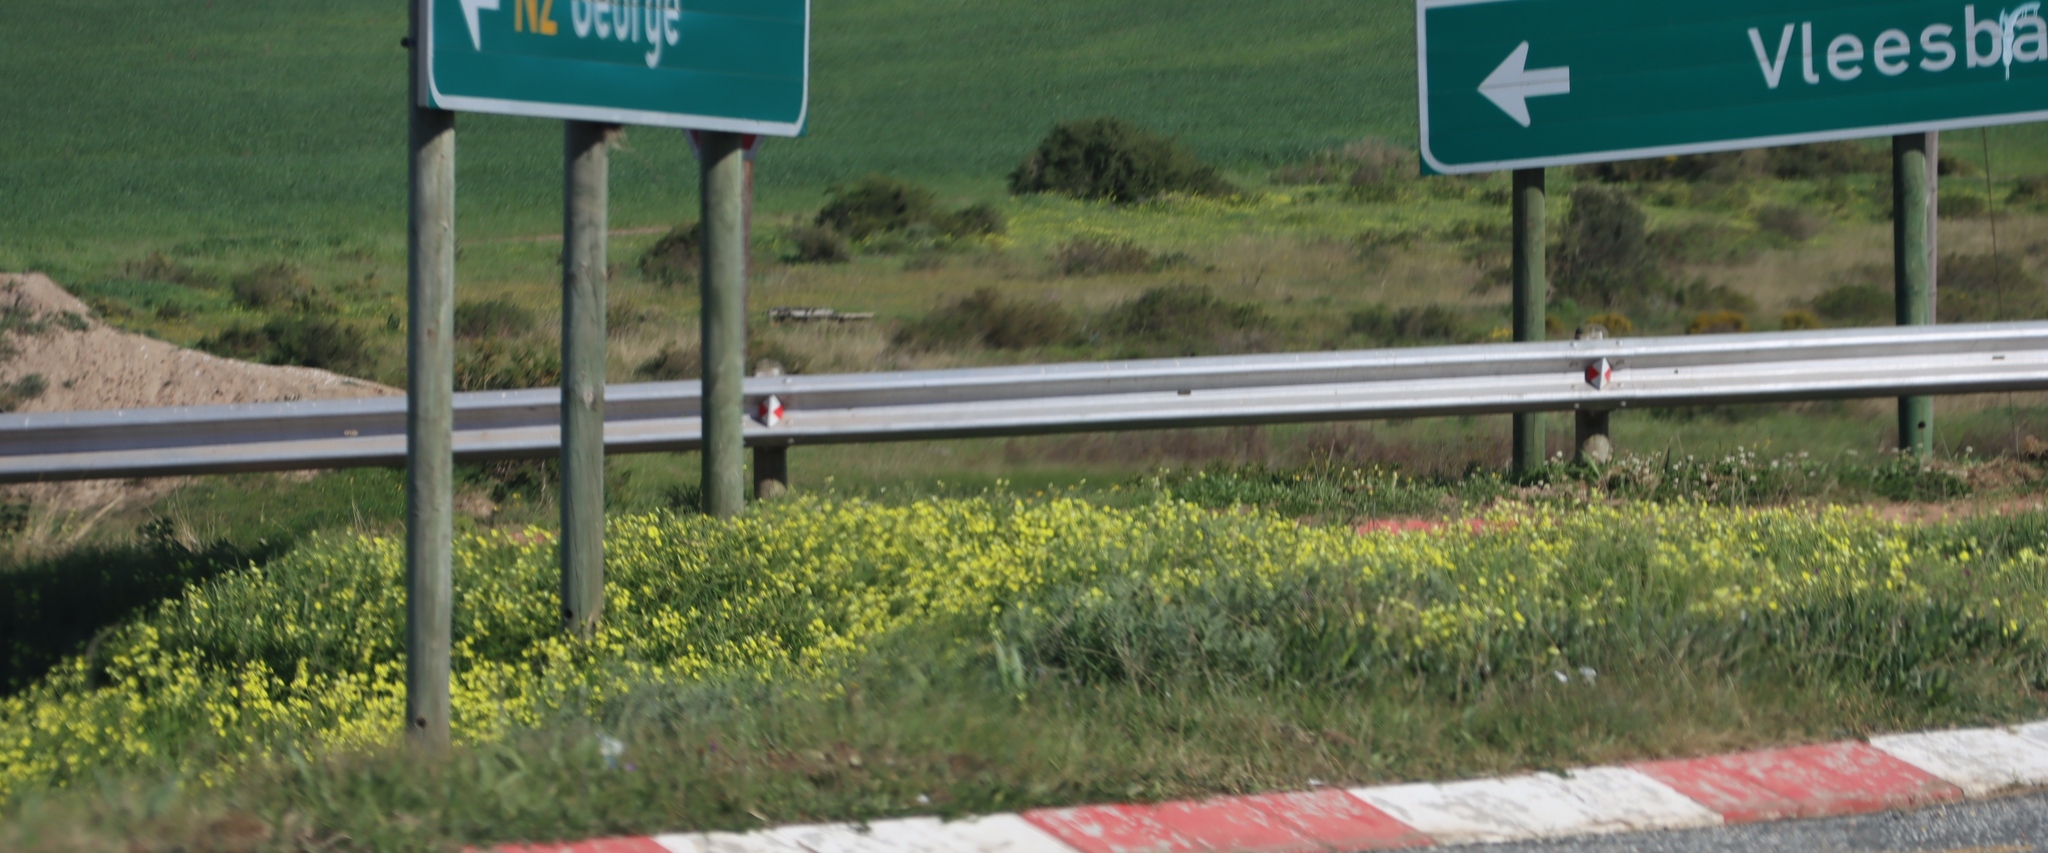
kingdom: Plantae
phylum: Tracheophyta
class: Magnoliopsida
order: Oxalidales
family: Oxalidaceae
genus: Oxalis
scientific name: Oxalis pes-caprae
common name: Bermuda-buttercup
